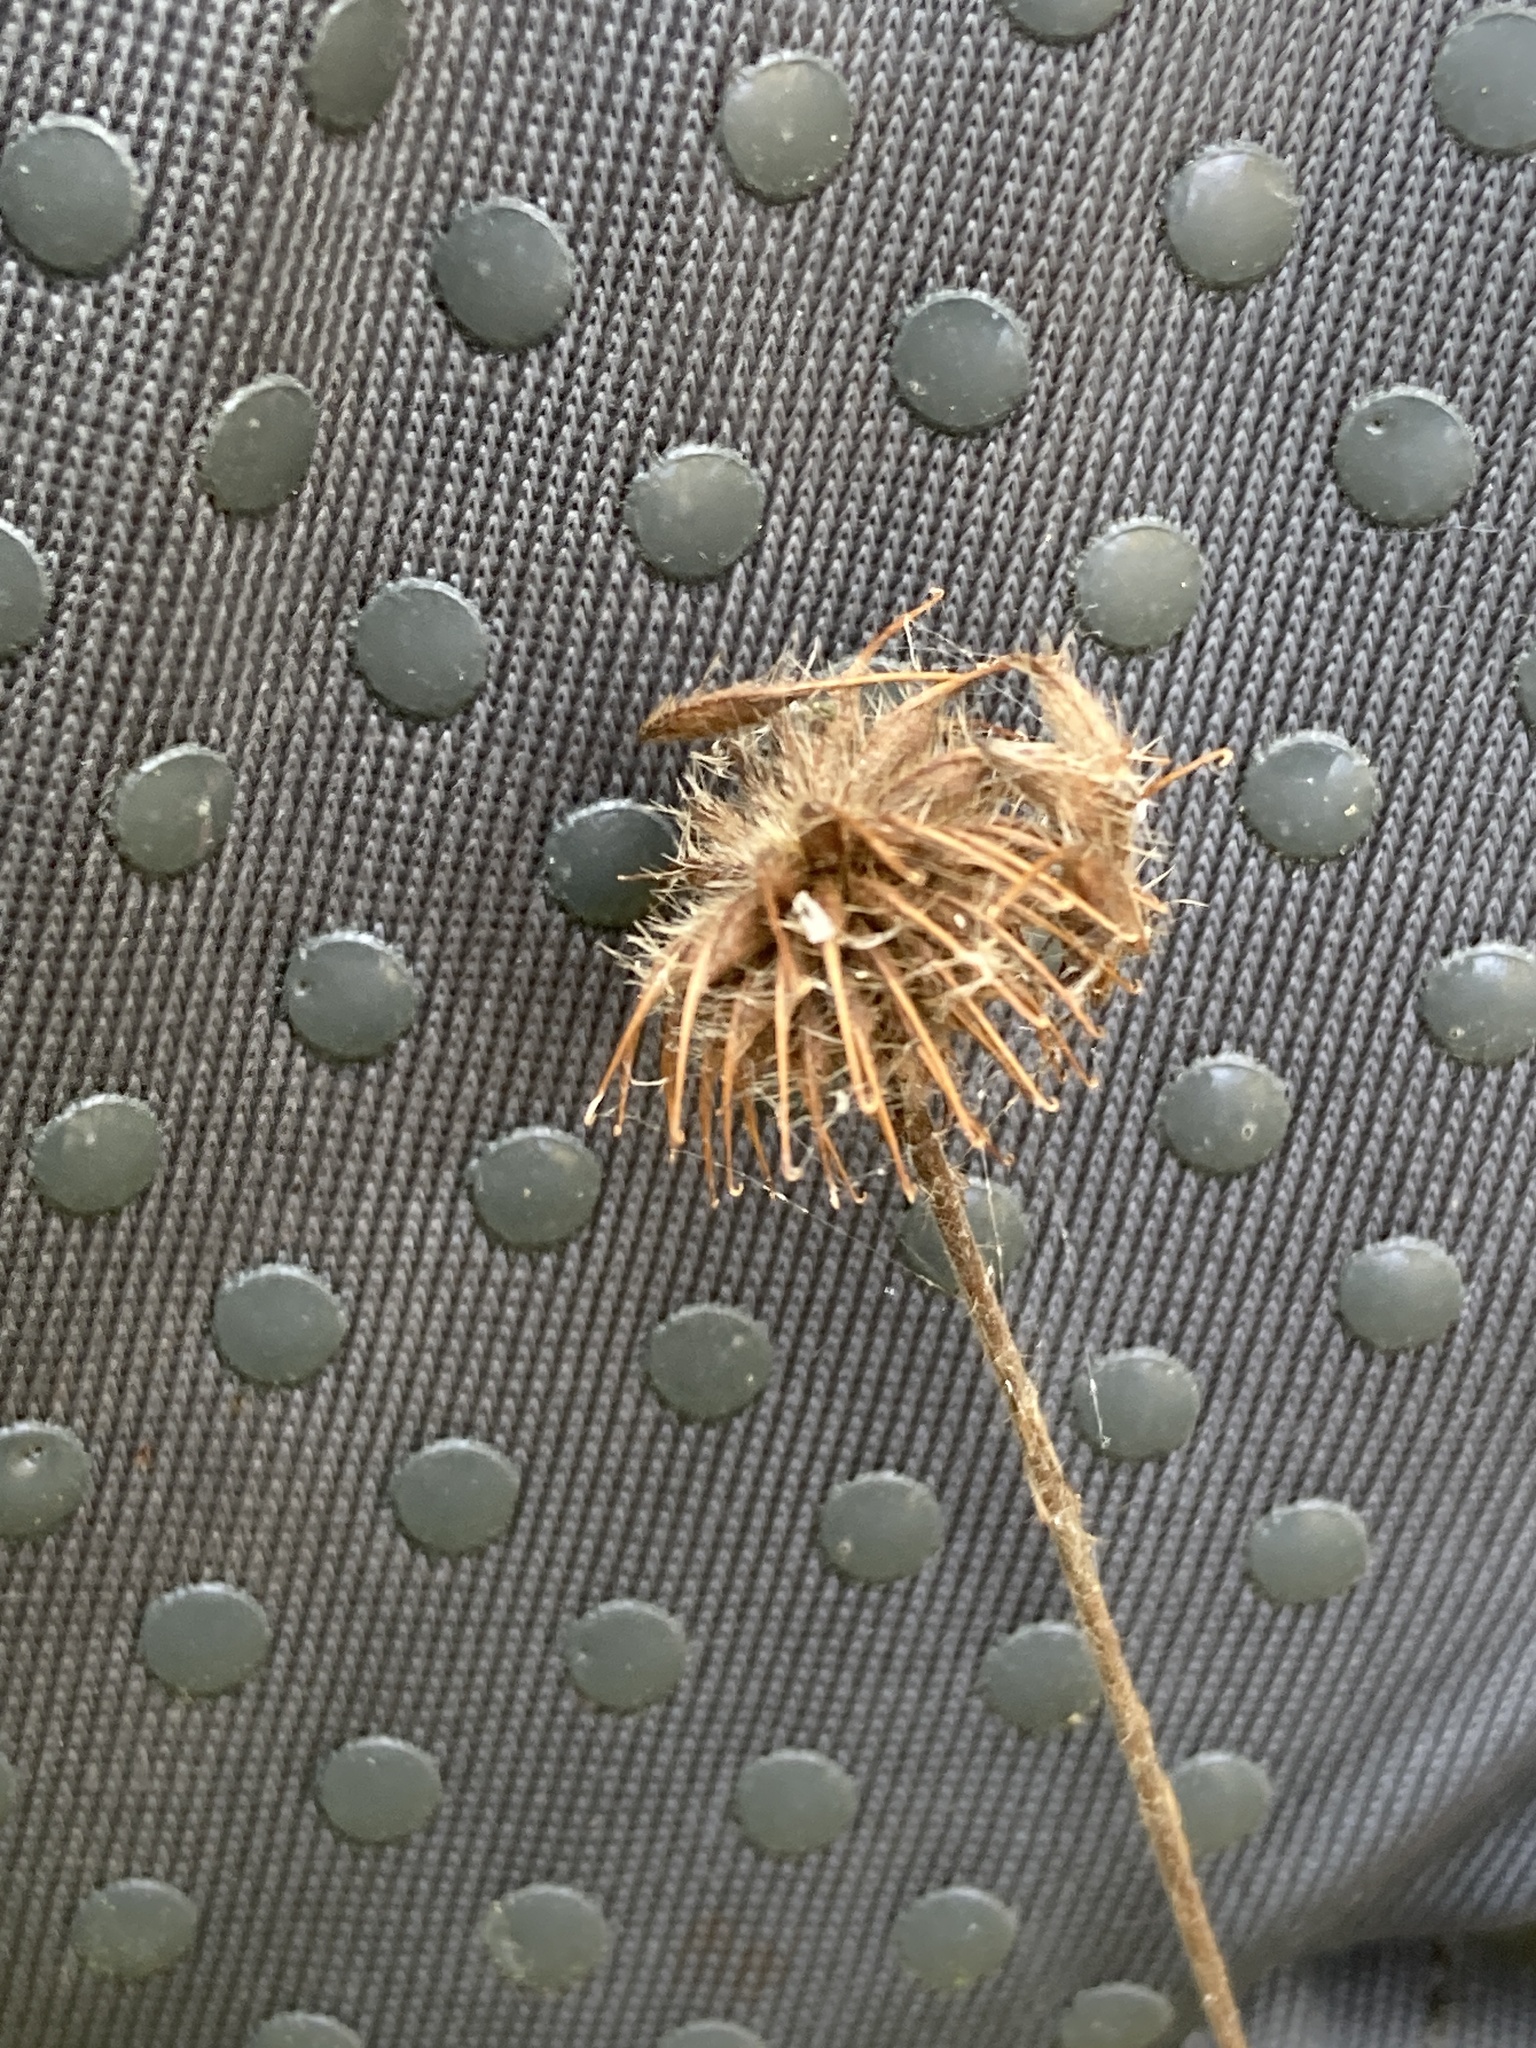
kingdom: Plantae
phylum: Tracheophyta
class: Magnoliopsida
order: Rosales
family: Rosaceae
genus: Geum
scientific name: Geum urbanum
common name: Wood avens
